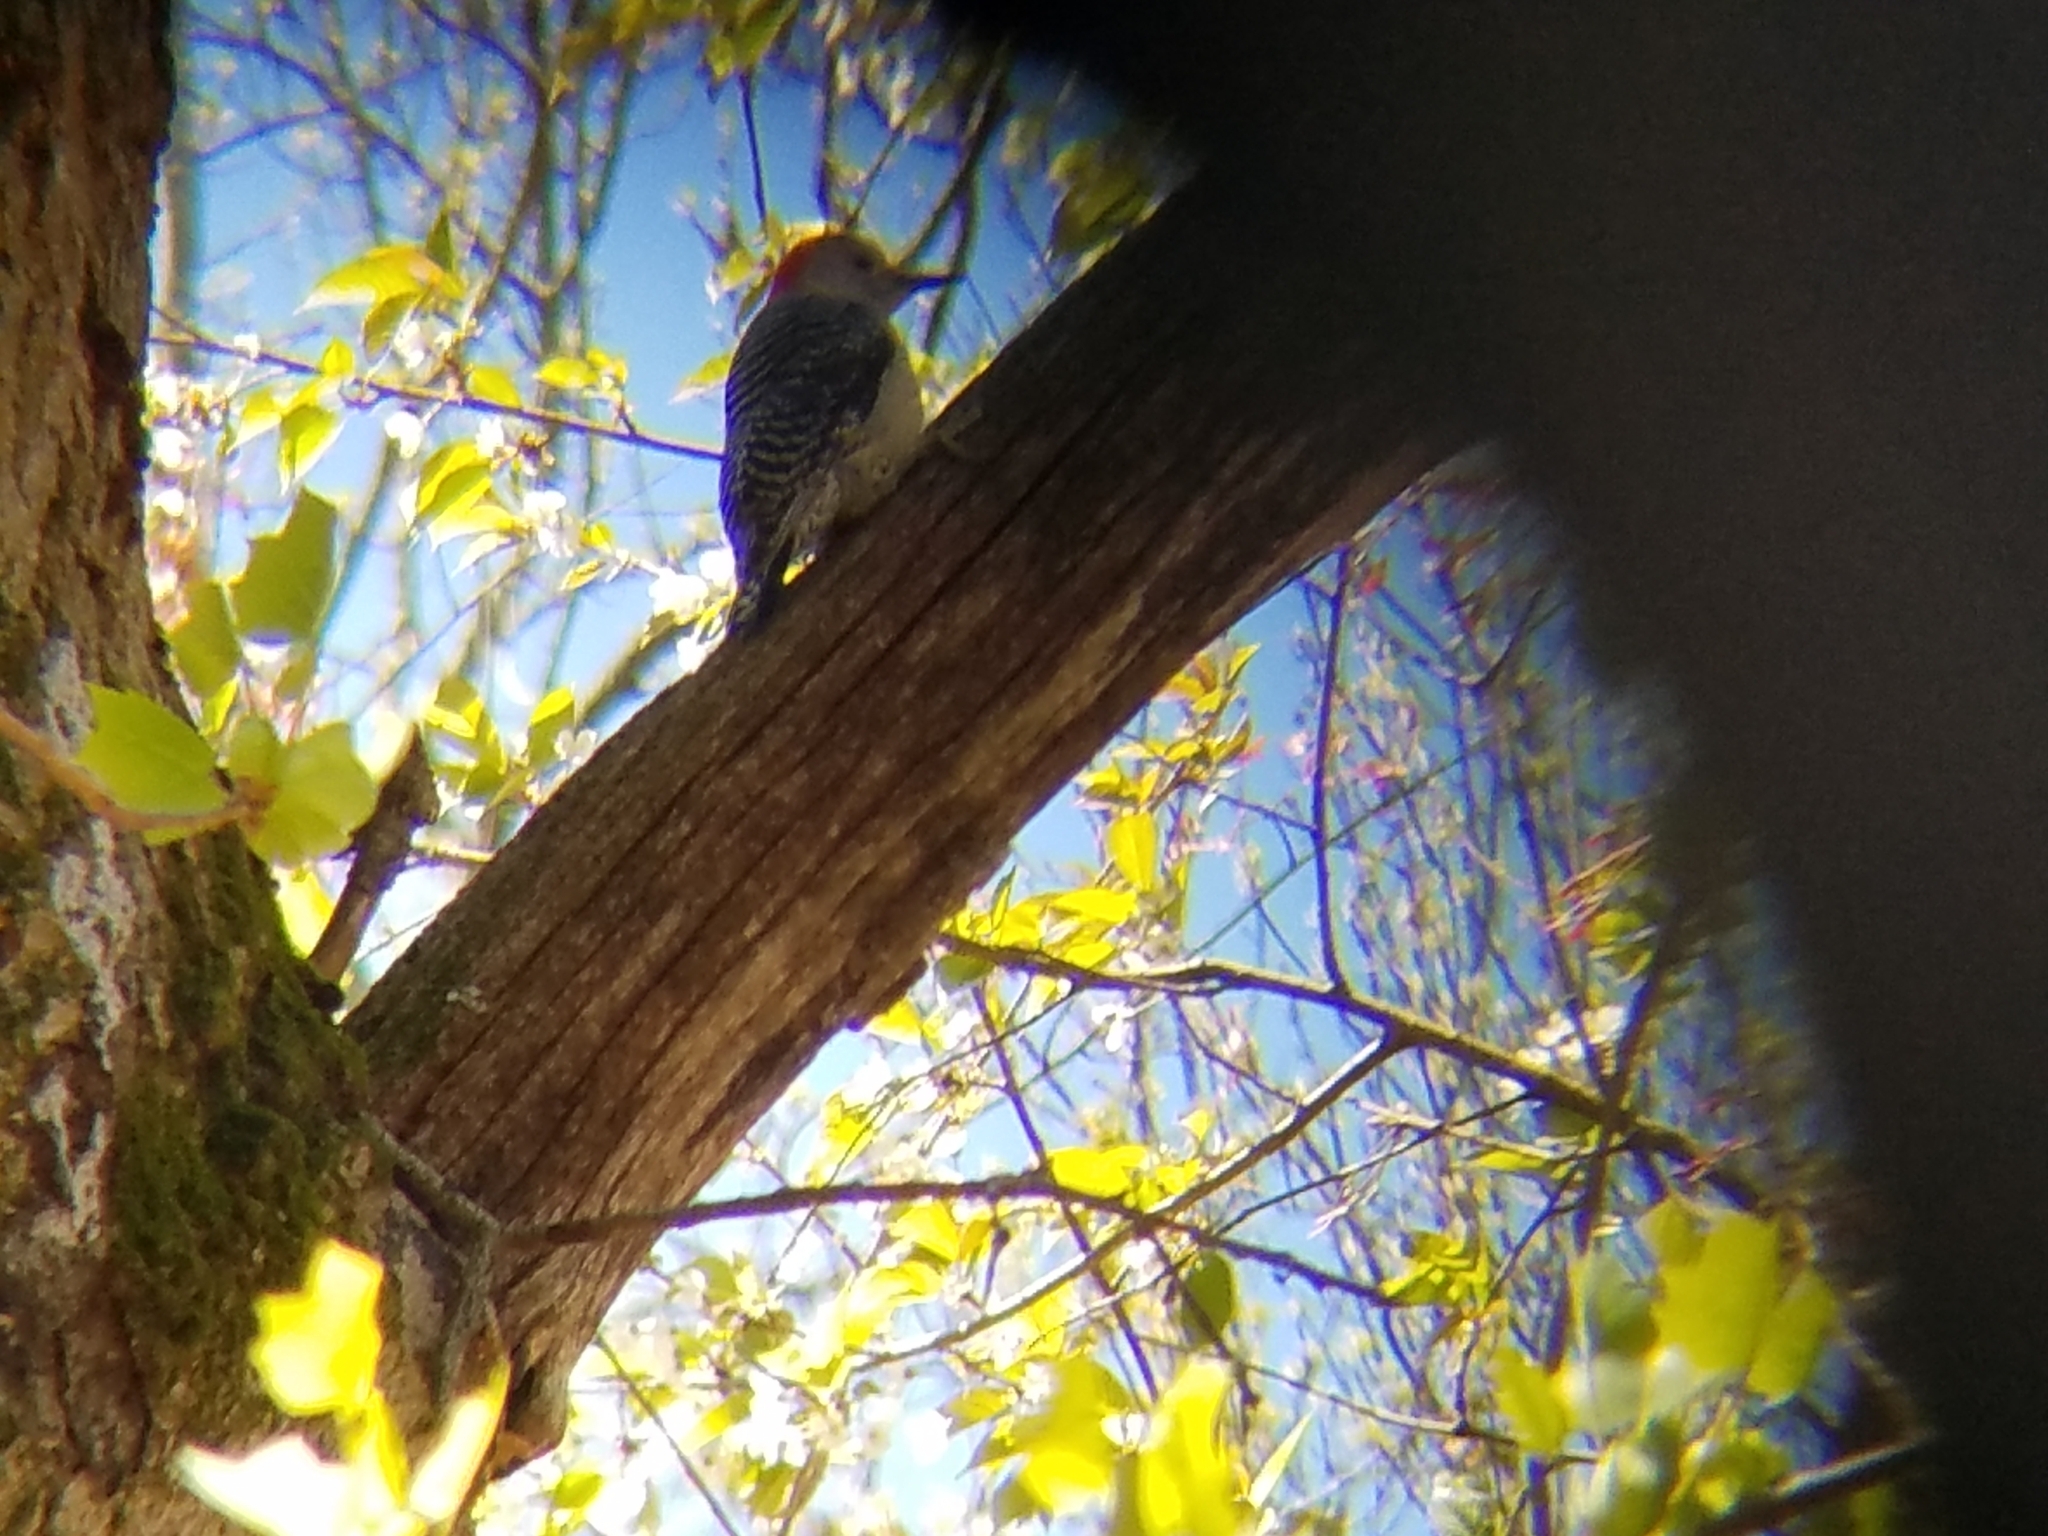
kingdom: Animalia
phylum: Chordata
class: Aves
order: Piciformes
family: Picidae
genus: Melanerpes
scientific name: Melanerpes carolinus
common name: Red-bellied woodpecker
